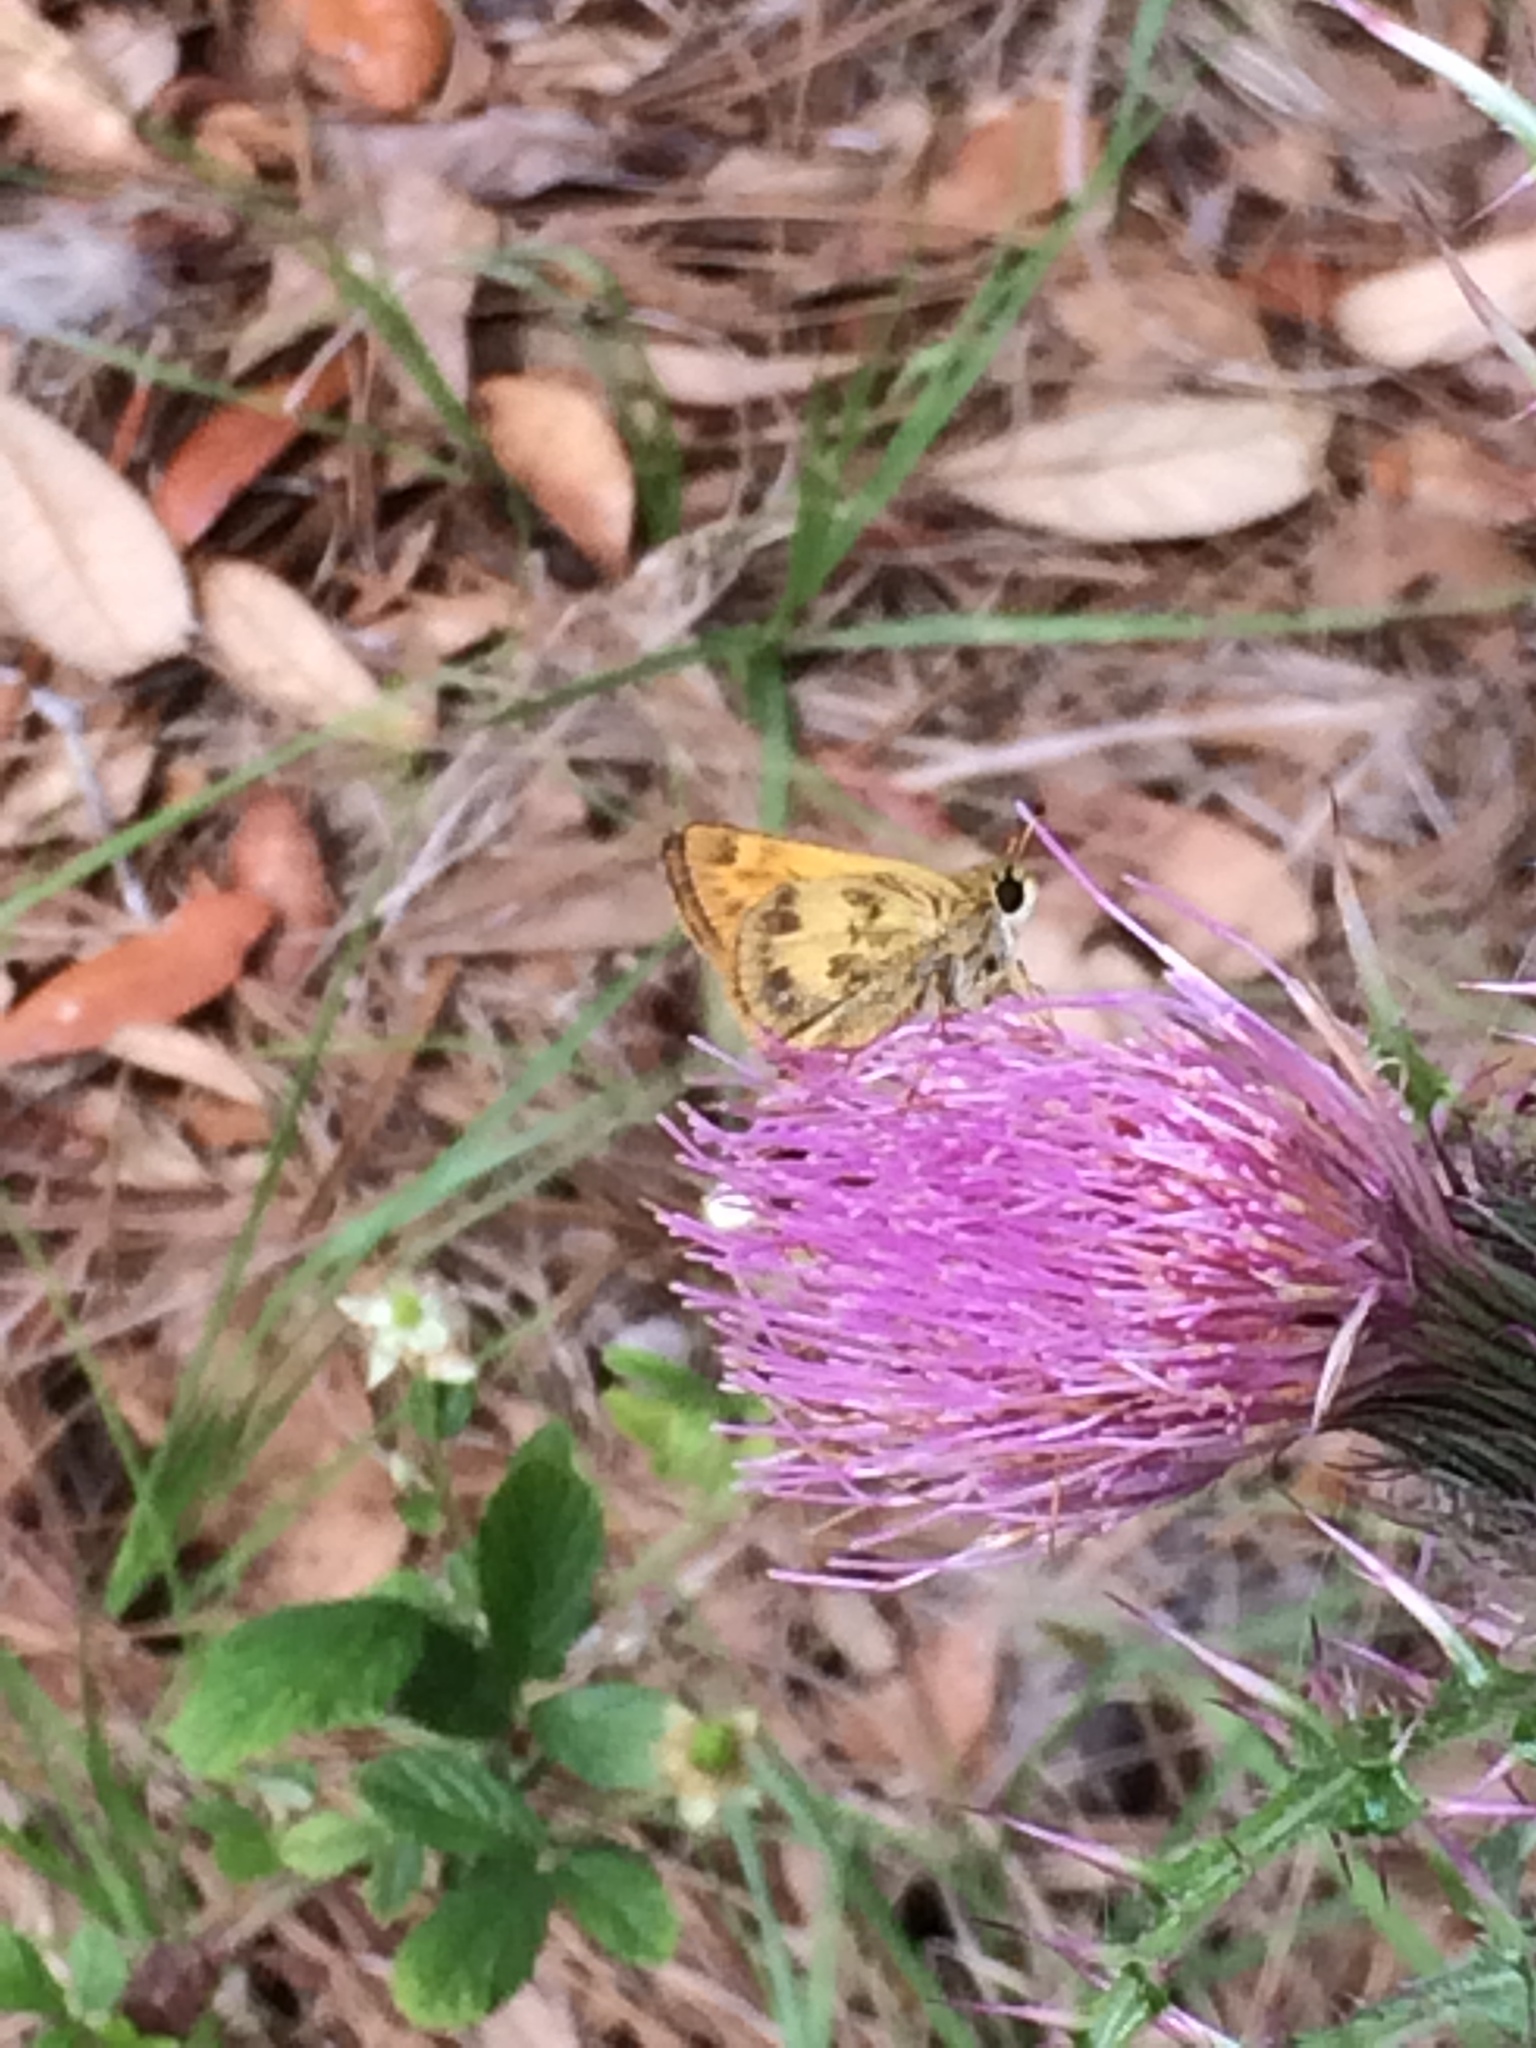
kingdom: Animalia
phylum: Arthropoda
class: Insecta
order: Lepidoptera
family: Hesperiidae
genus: Polites
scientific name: Polites vibex
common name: Whirlabout
